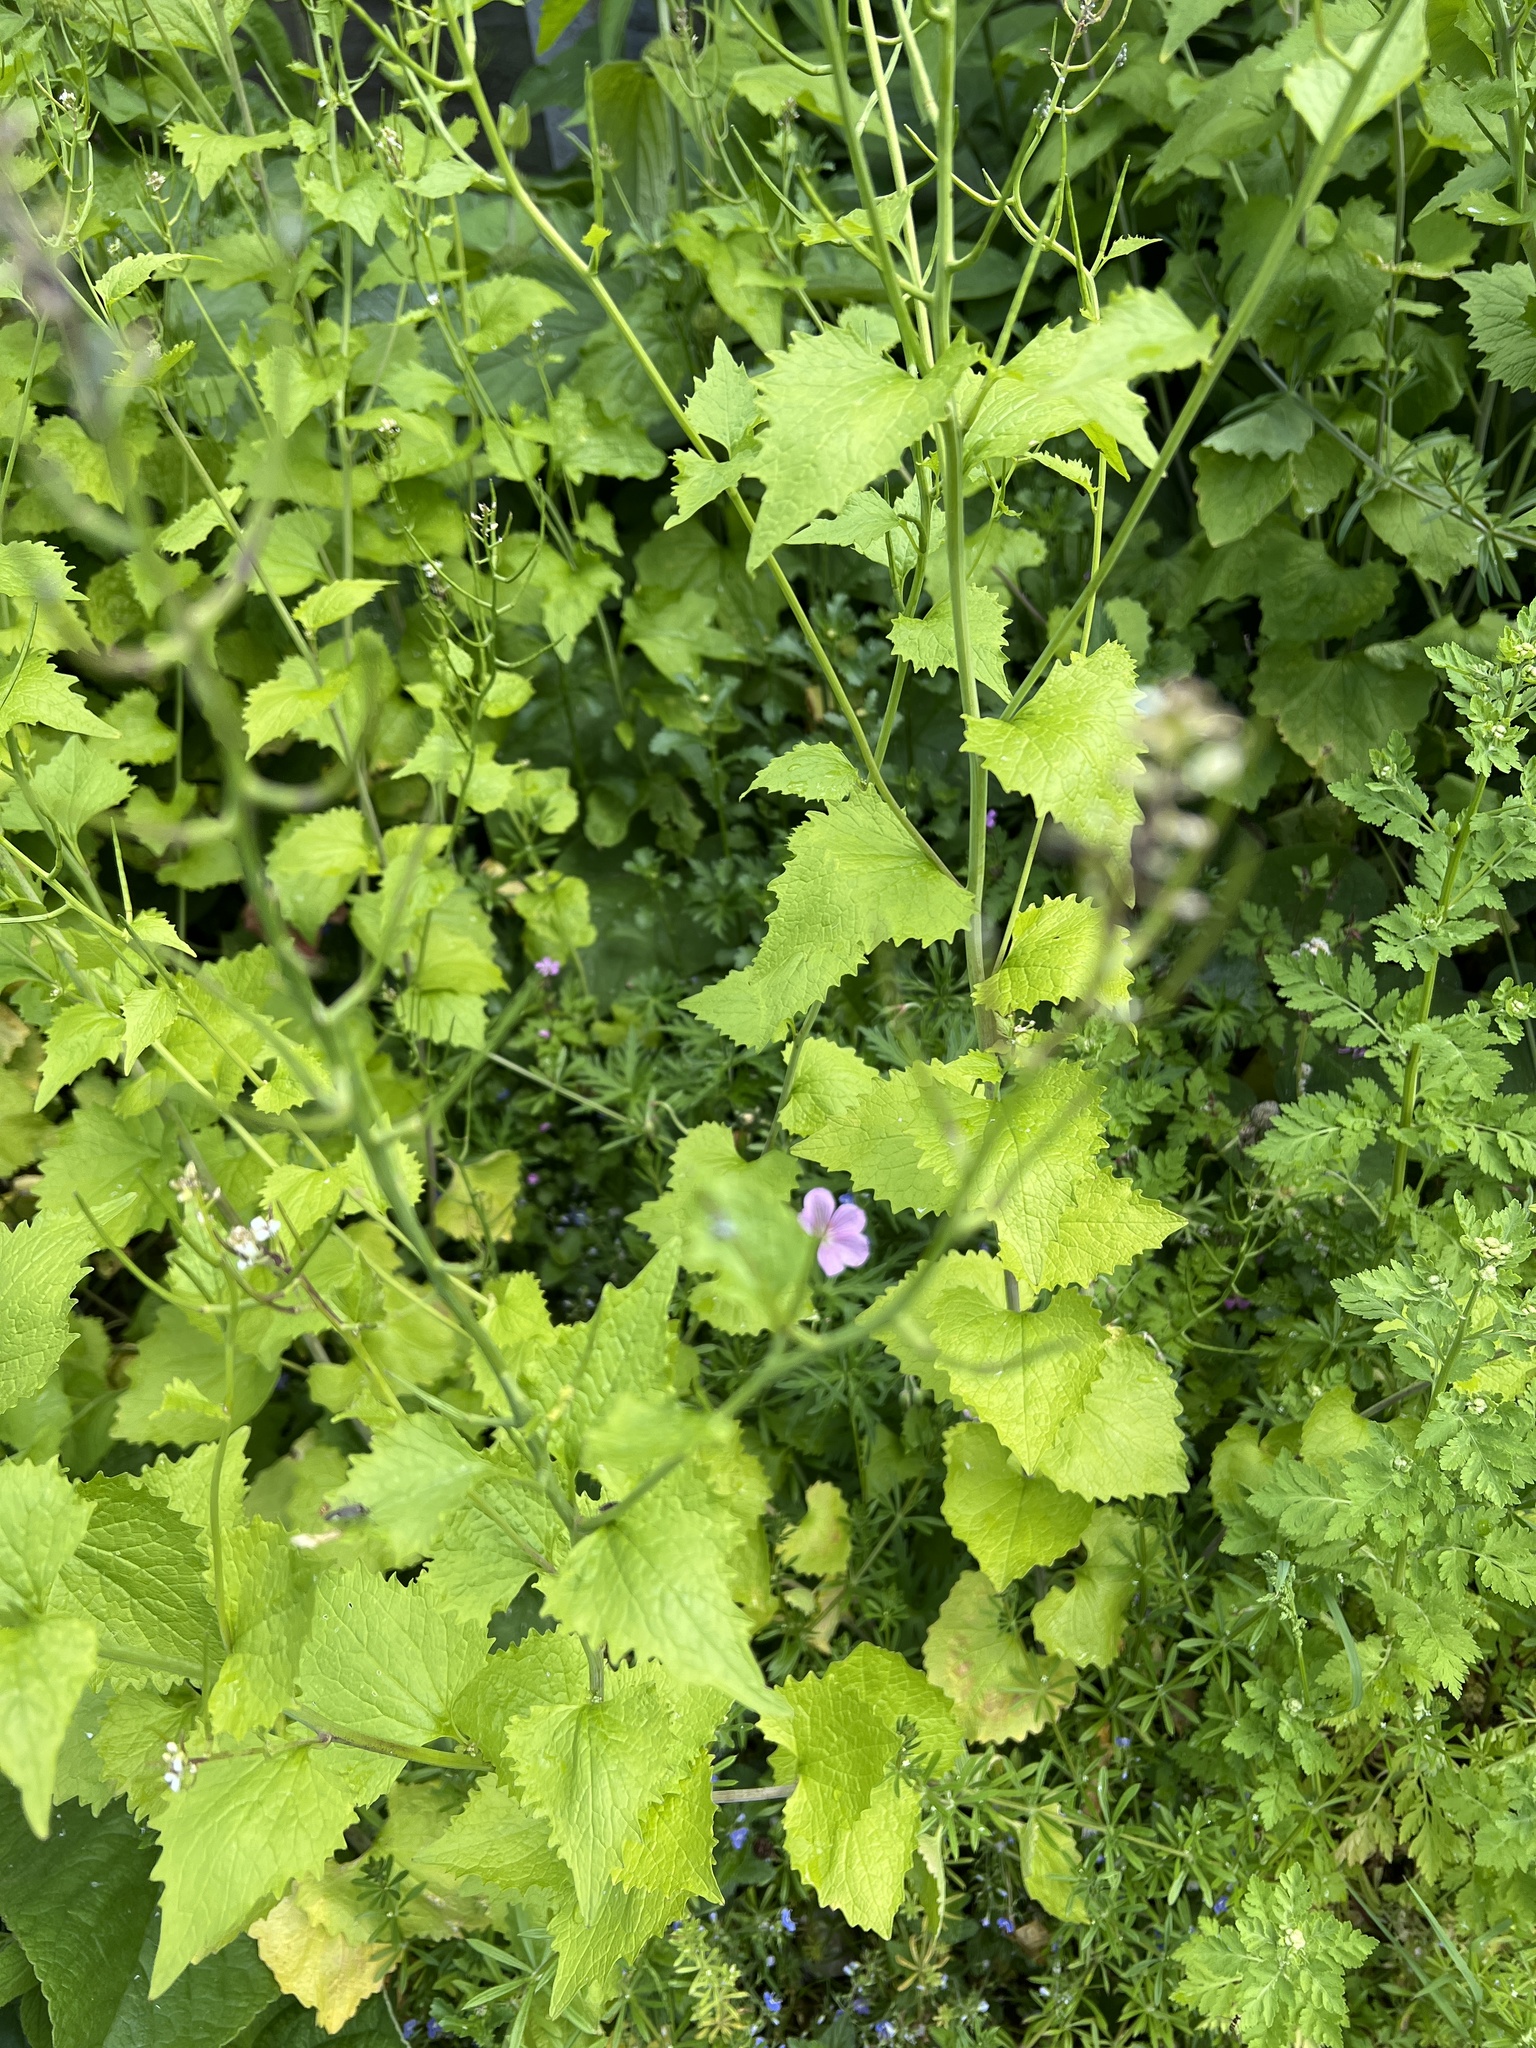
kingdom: Plantae
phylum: Tracheophyta
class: Magnoliopsida
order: Brassicales
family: Brassicaceae
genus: Alliaria
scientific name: Alliaria petiolata
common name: Garlic mustard
